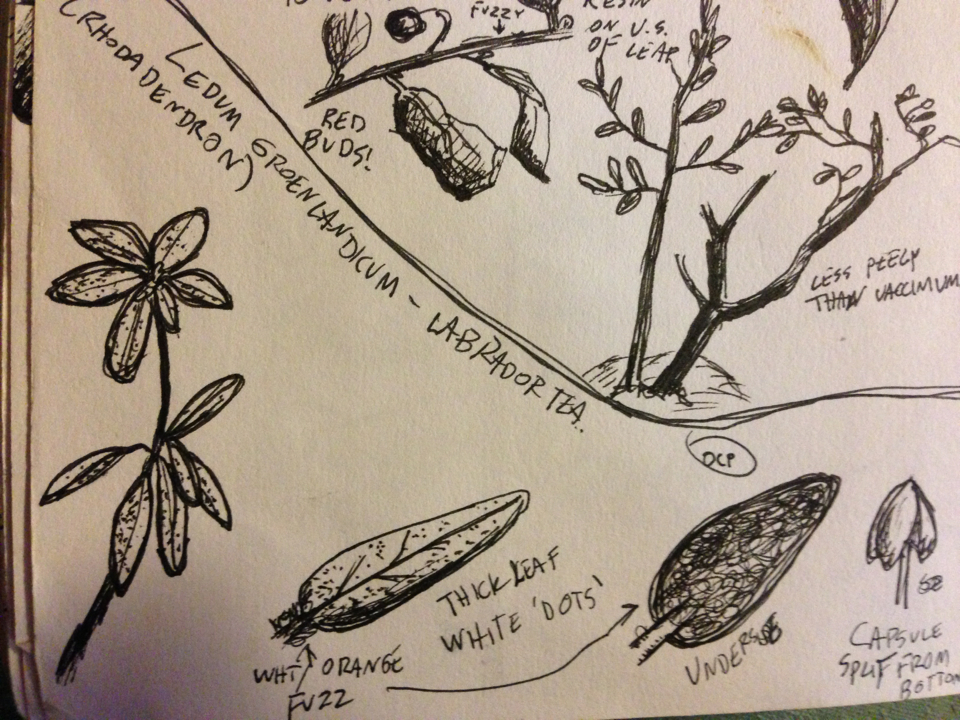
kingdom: Plantae
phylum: Tracheophyta
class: Magnoliopsida
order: Ericales
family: Ericaceae
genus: Rhododendron
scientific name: Rhododendron groenlandicum
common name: Bog labrador tea
